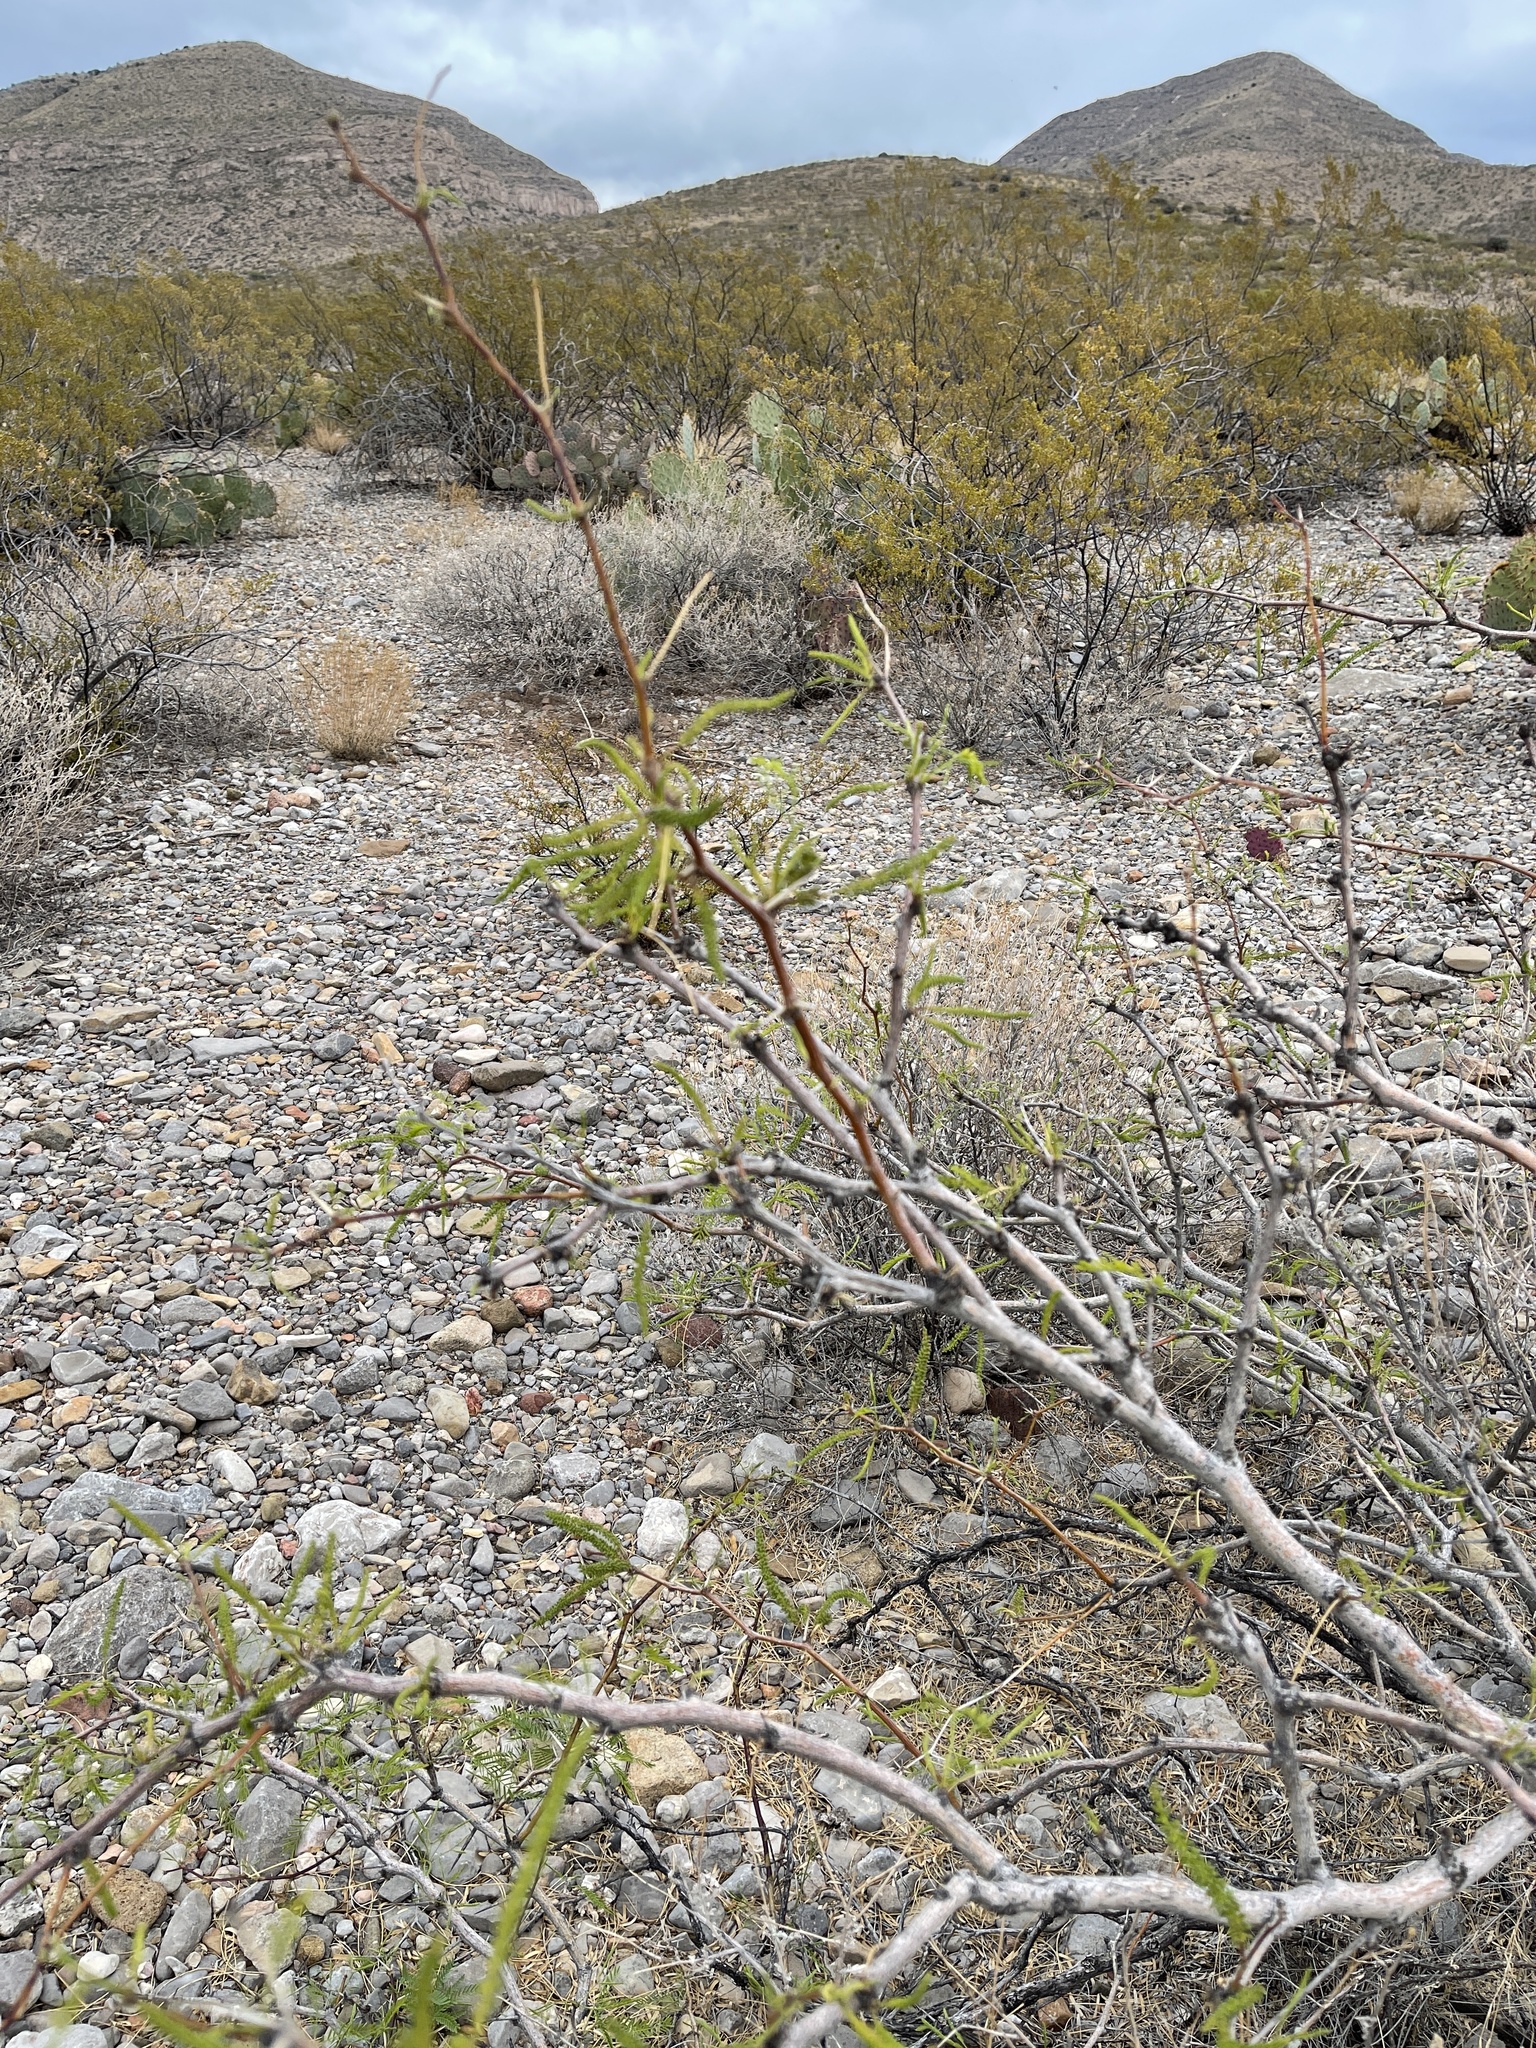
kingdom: Plantae
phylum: Tracheophyta
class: Magnoliopsida
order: Fabales
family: Fabaceae
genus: Prosopis
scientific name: Prosopis glandulosa
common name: Honey mesquite
